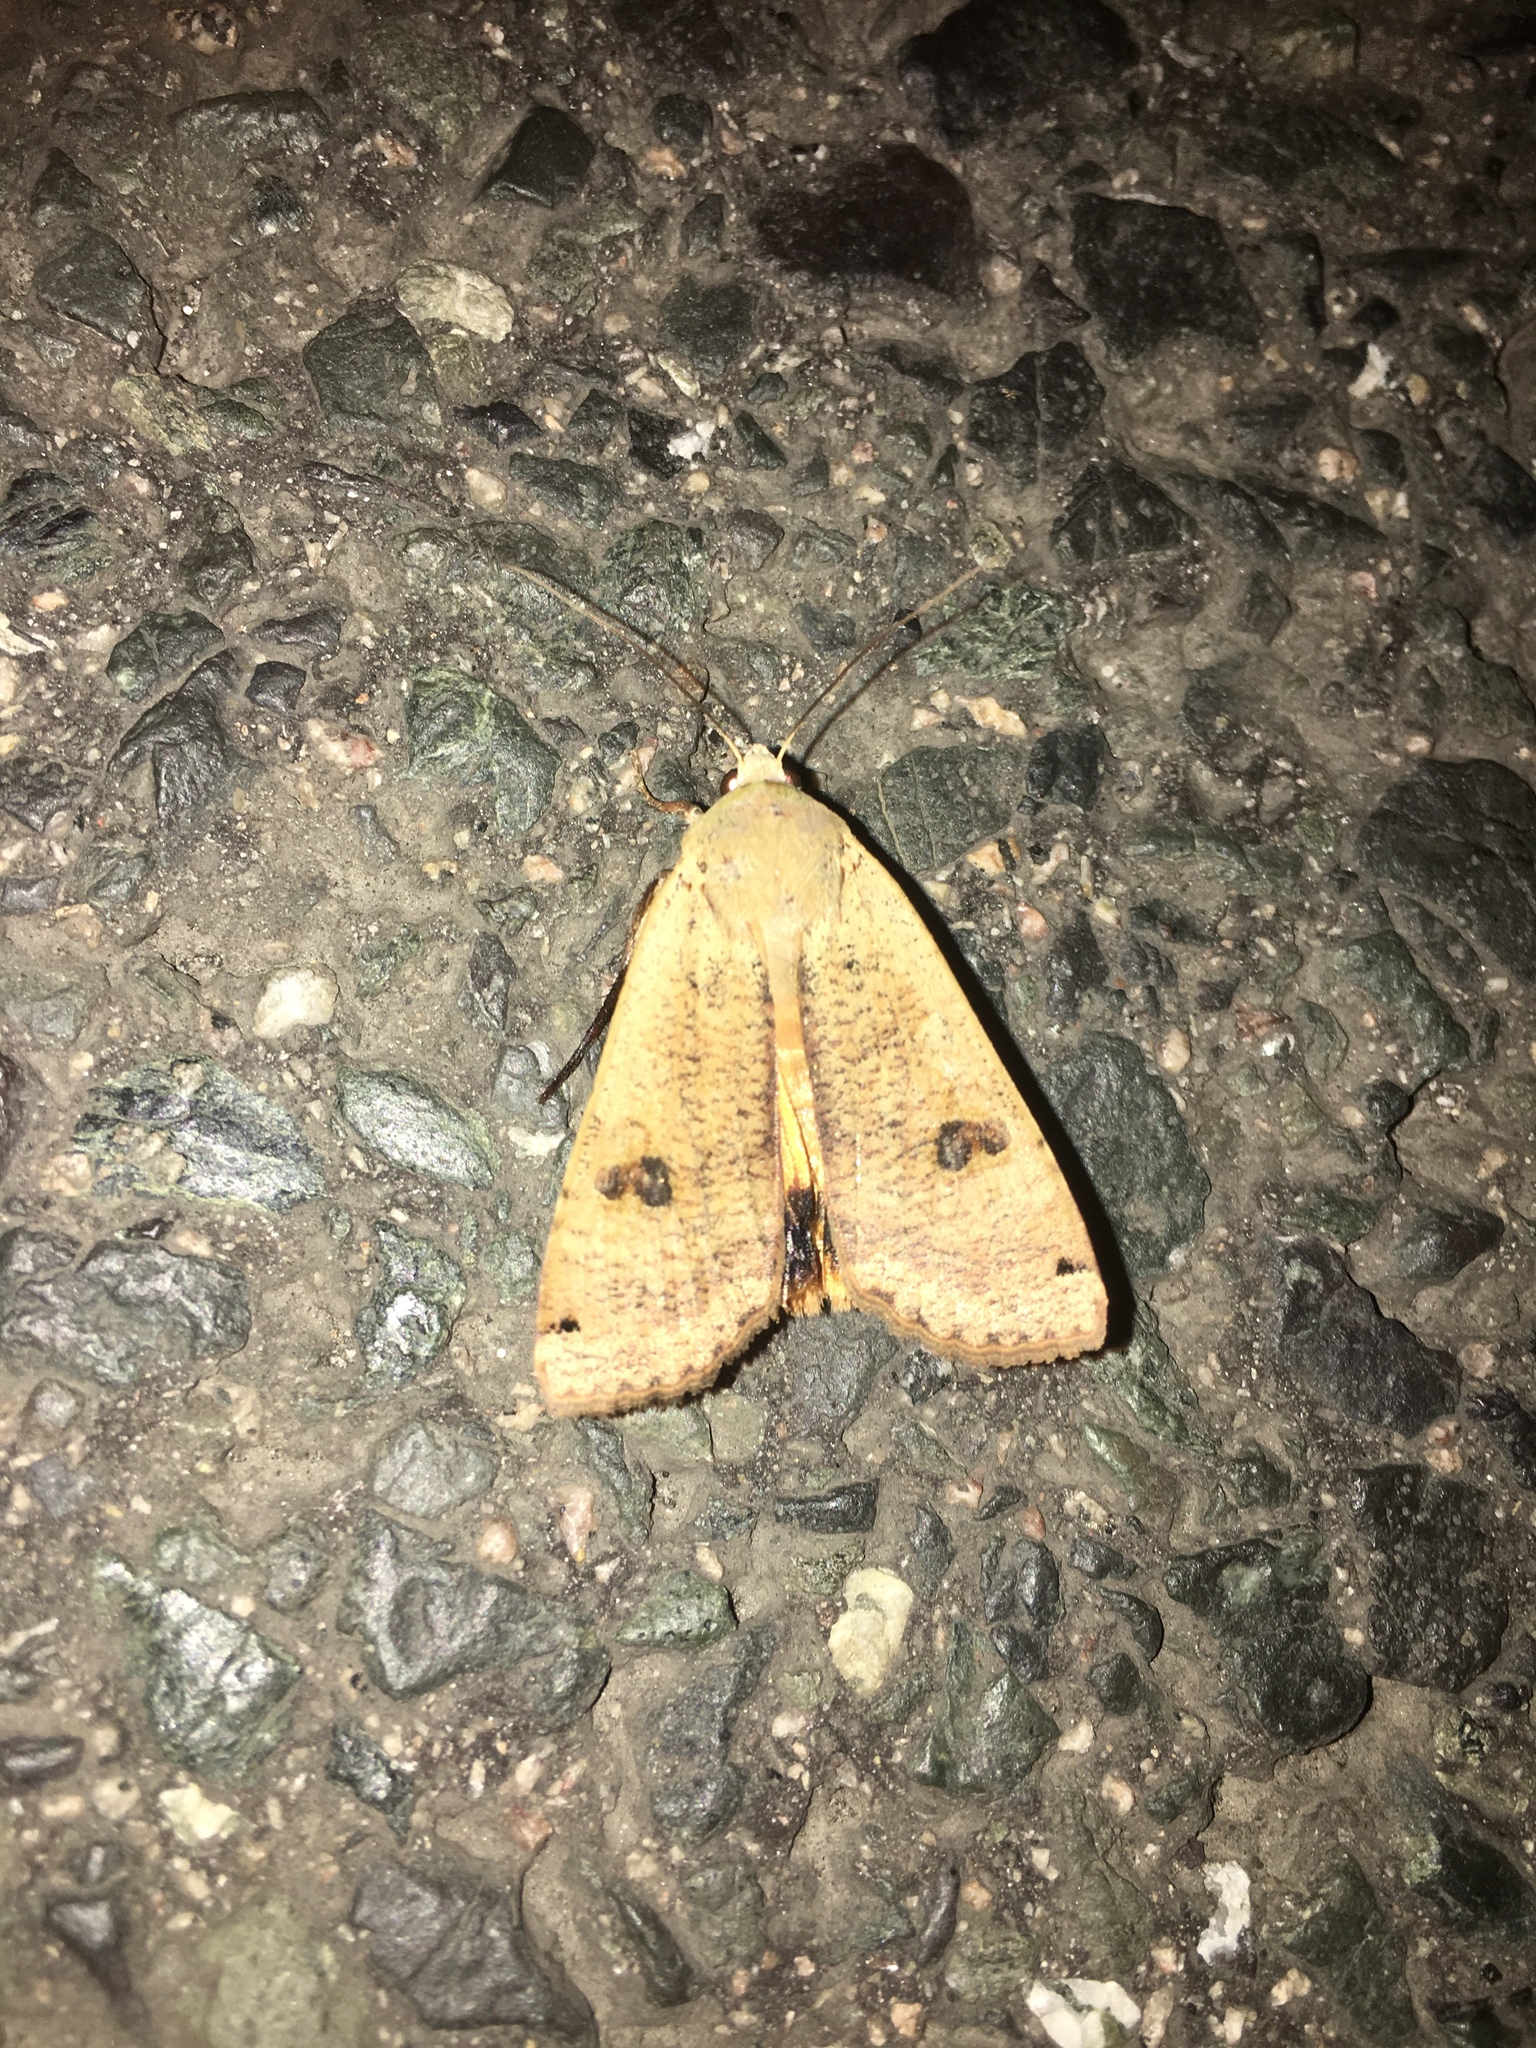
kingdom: Animalia
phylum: Arthropoda
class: Insecta
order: Lepidoptera
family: Noctuidae
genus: Noctua
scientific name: Noctua pronuba
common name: Large yellow underwing
